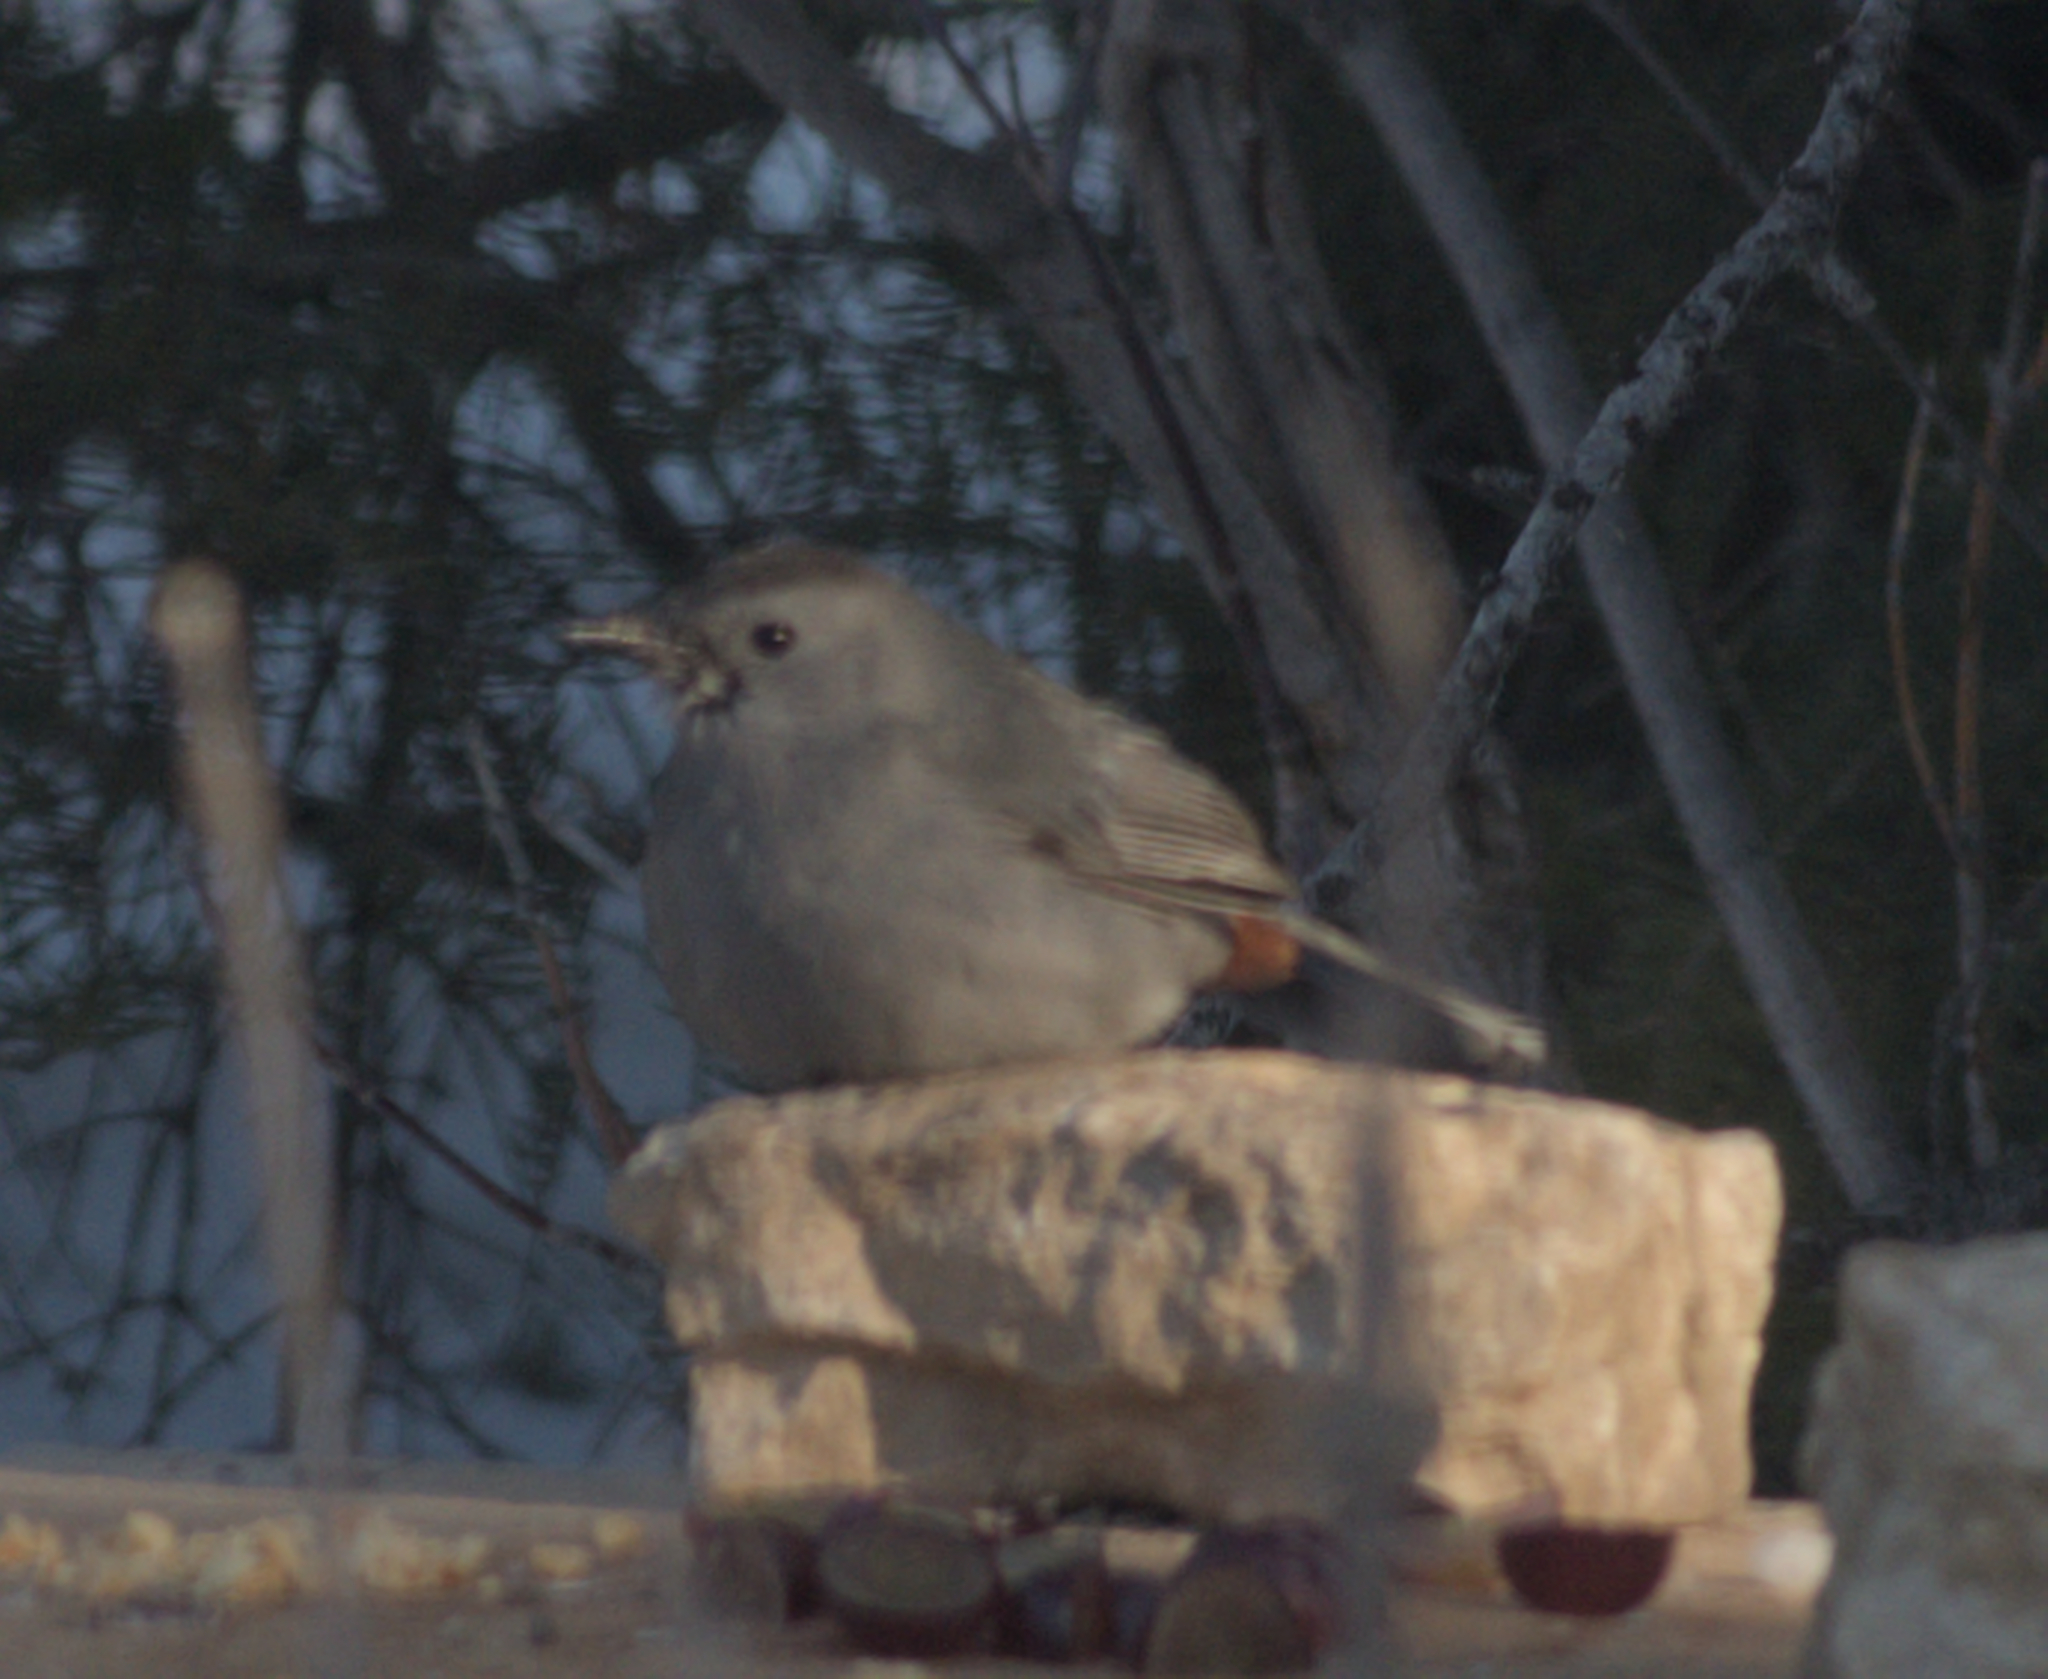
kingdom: Animalia
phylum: Chordata
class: Aves
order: Passeriformes
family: Mimidae
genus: Dumetella
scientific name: Dumetella carolinensis
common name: Gray catbird
